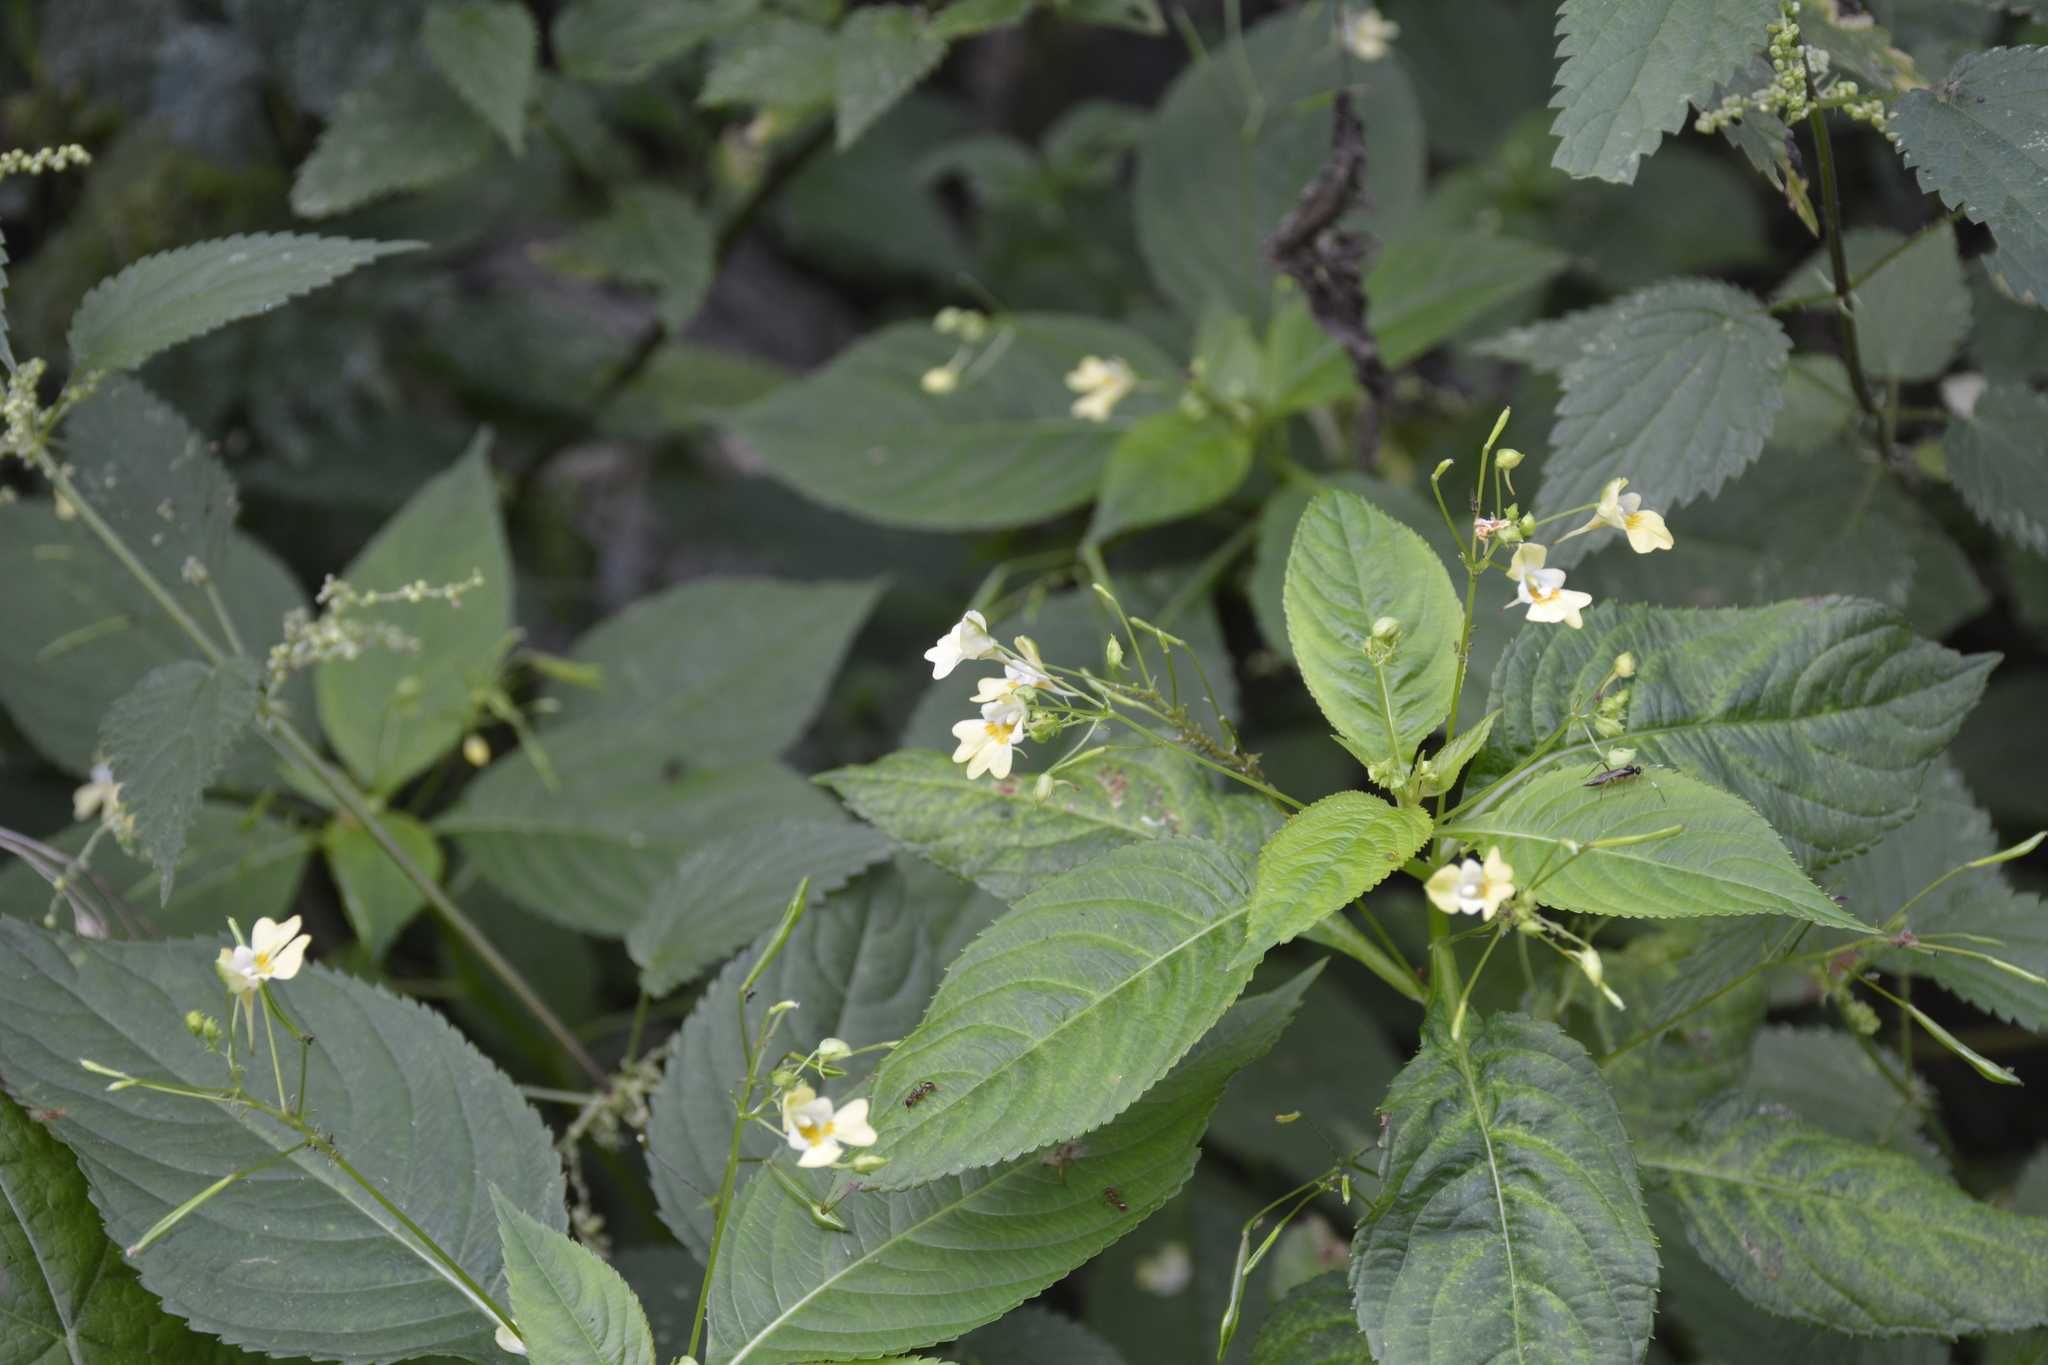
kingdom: Plantae
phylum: Tracheophyta
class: Magnoliopsida
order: Ericales
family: Balsaminaceae
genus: Impatiens
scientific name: Impatiens parviflora
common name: Small balsam
